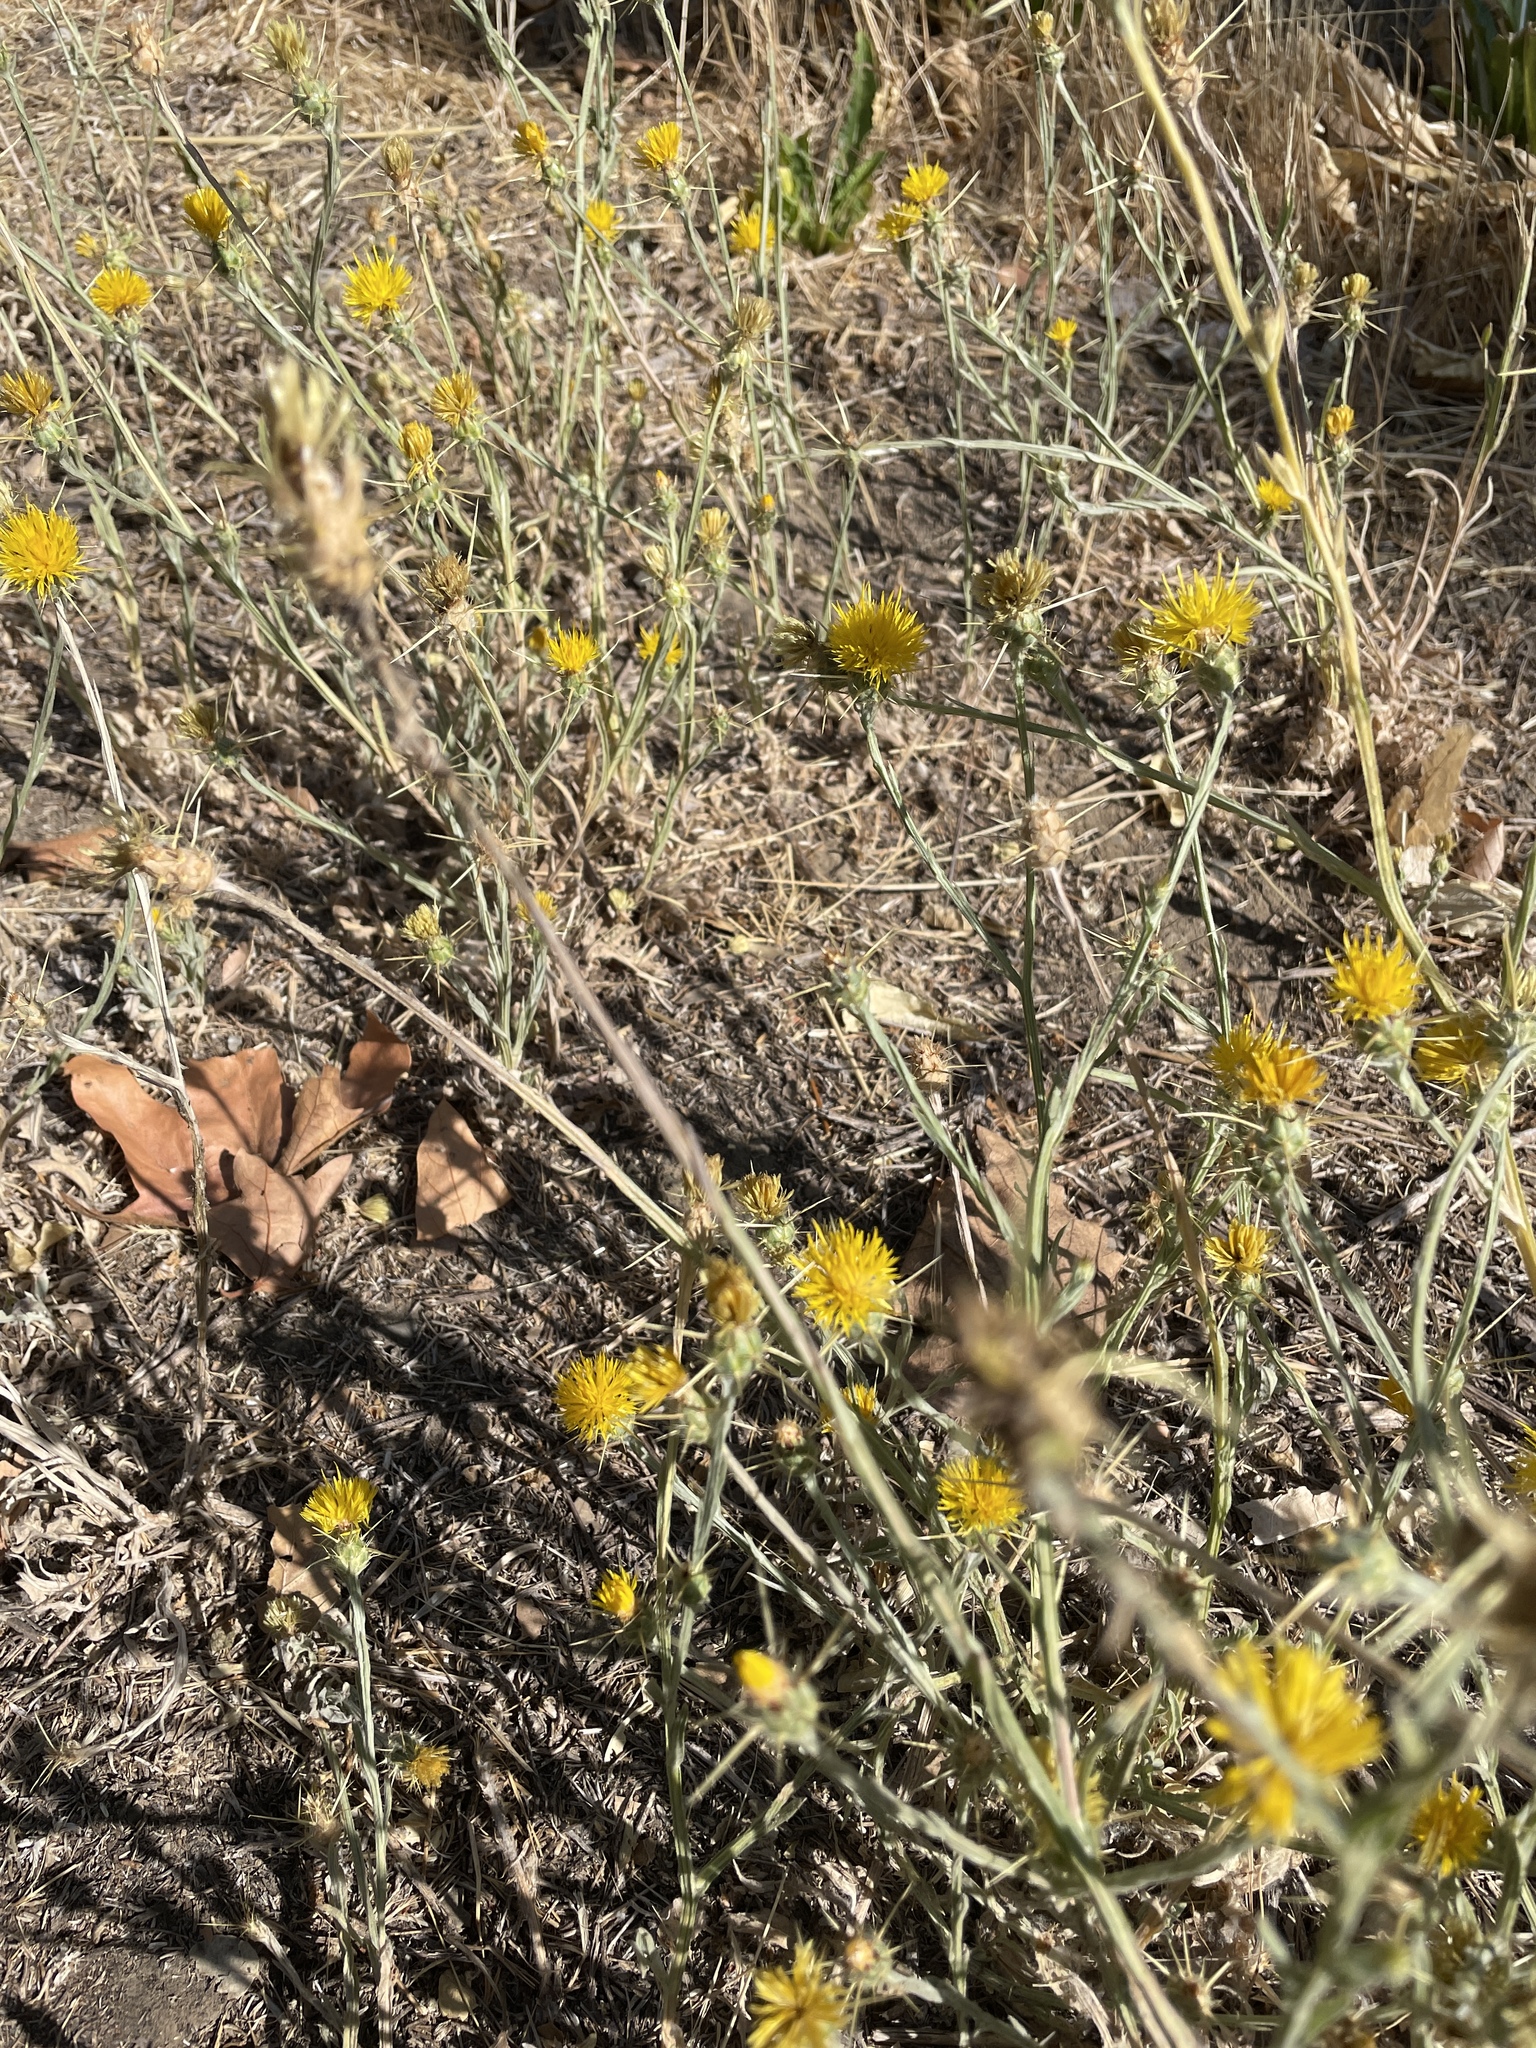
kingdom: Plantae
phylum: Tracheophyta
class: Magnoliopsida
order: Asterales
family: Asteraceae
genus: Centaurea
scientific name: Centaurea solstitialis
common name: Yellow star-thistle
